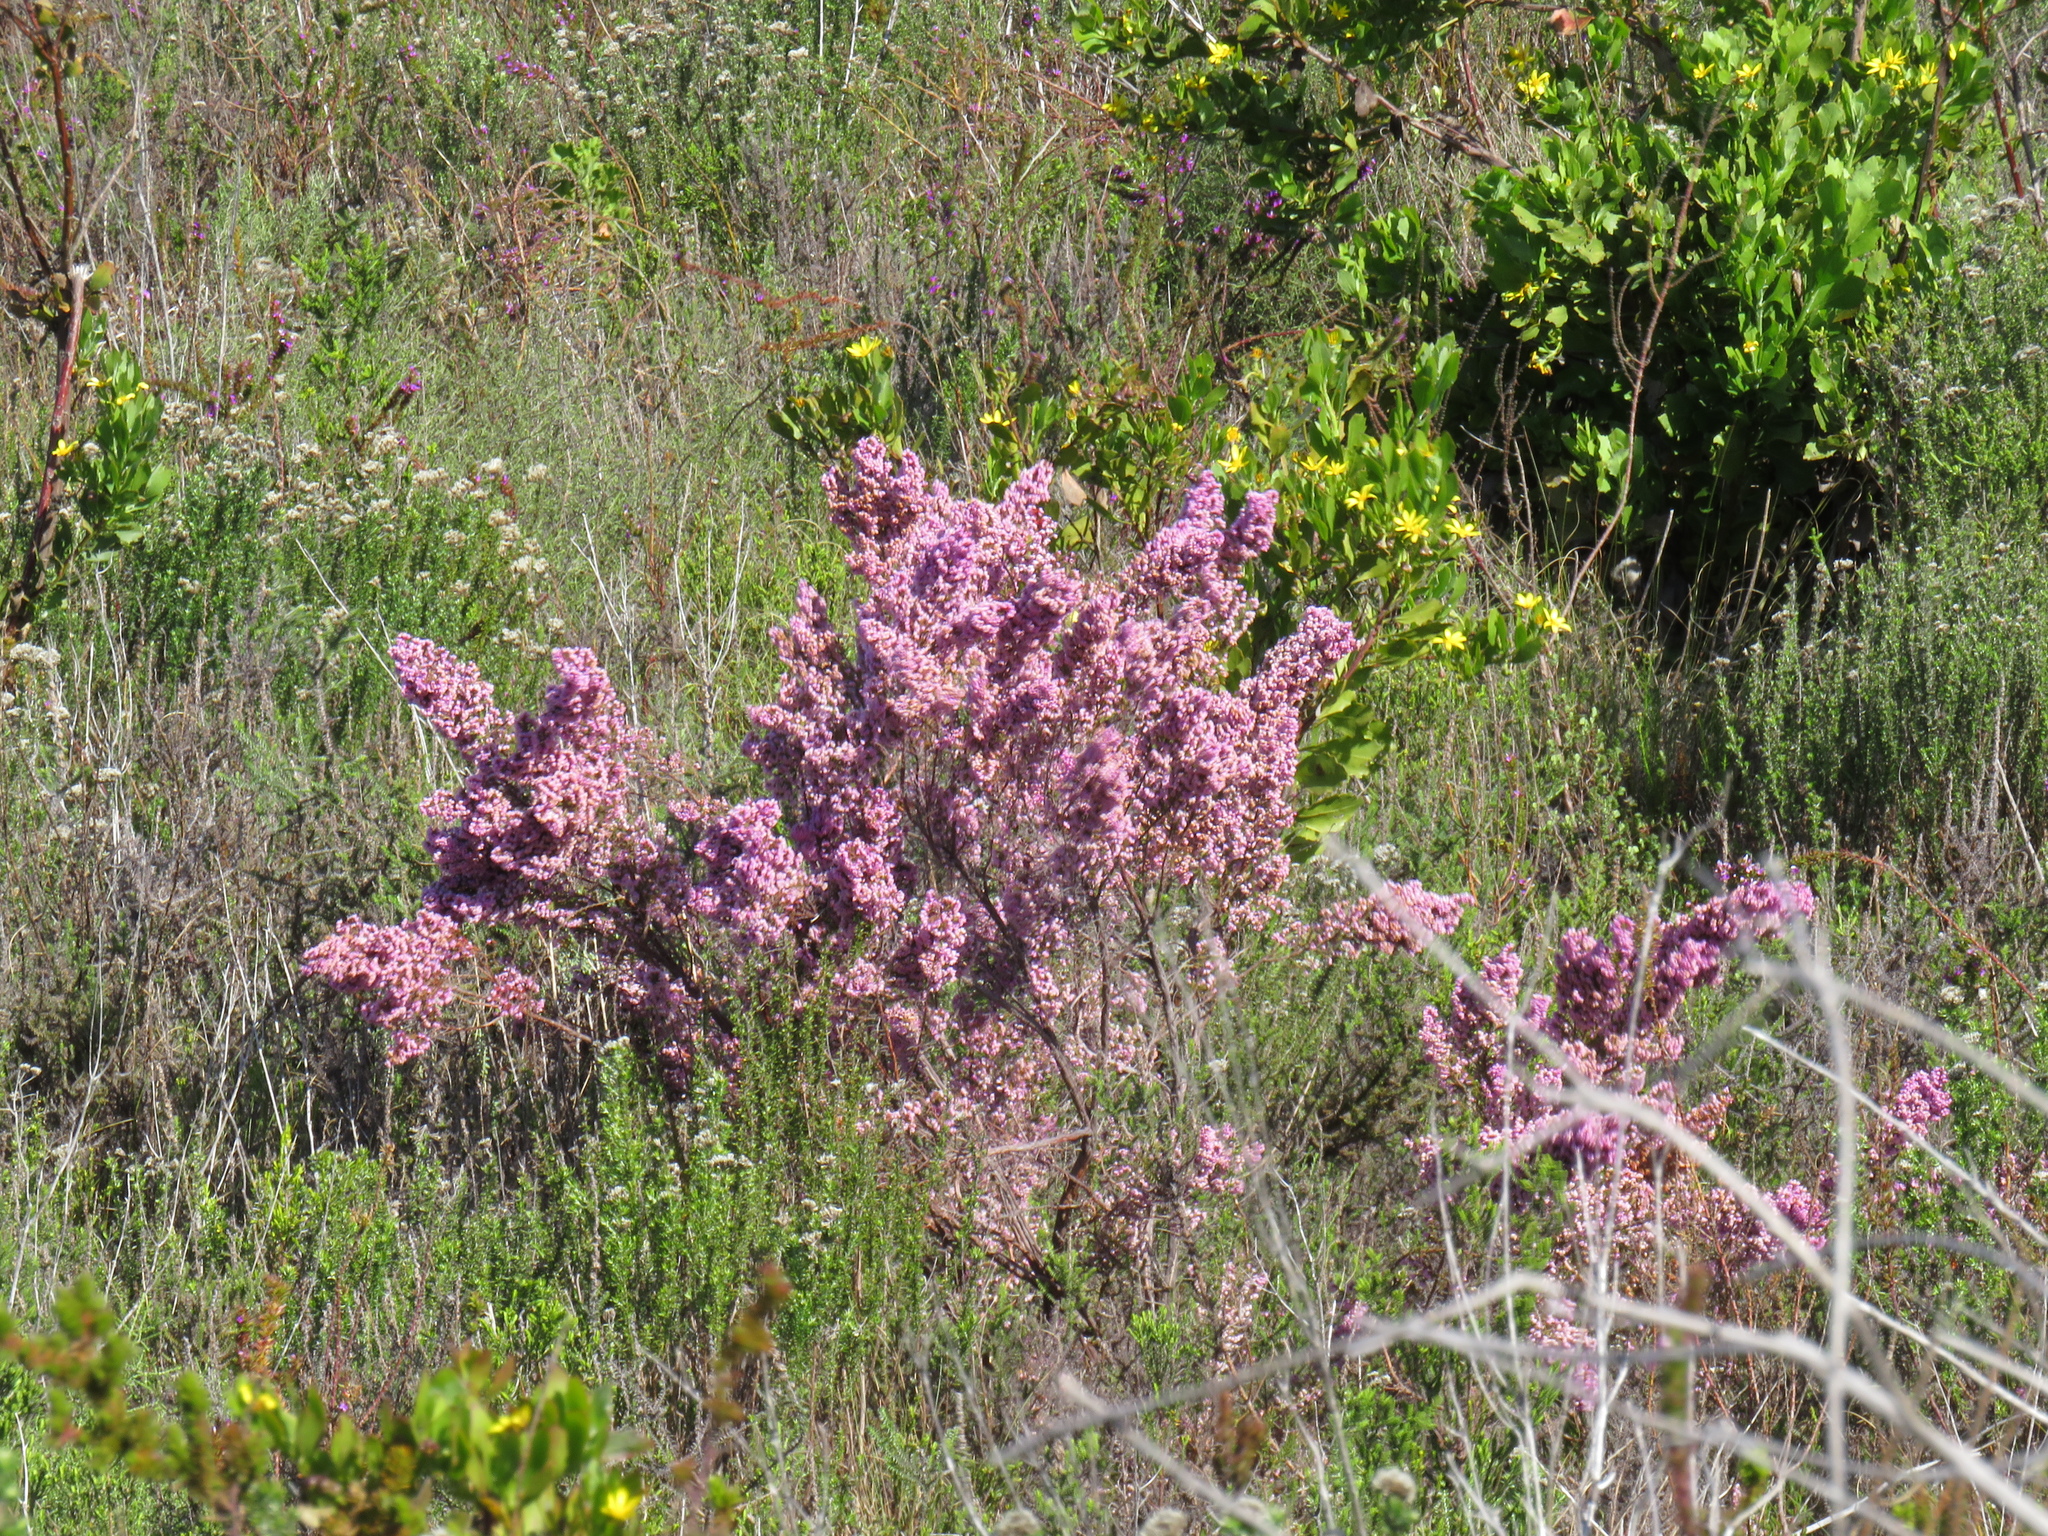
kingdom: Plantae
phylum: Tracheophyta
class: Magnoliopsida
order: Ericales
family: Ericaceae
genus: Erica
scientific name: Erica mauritanica
